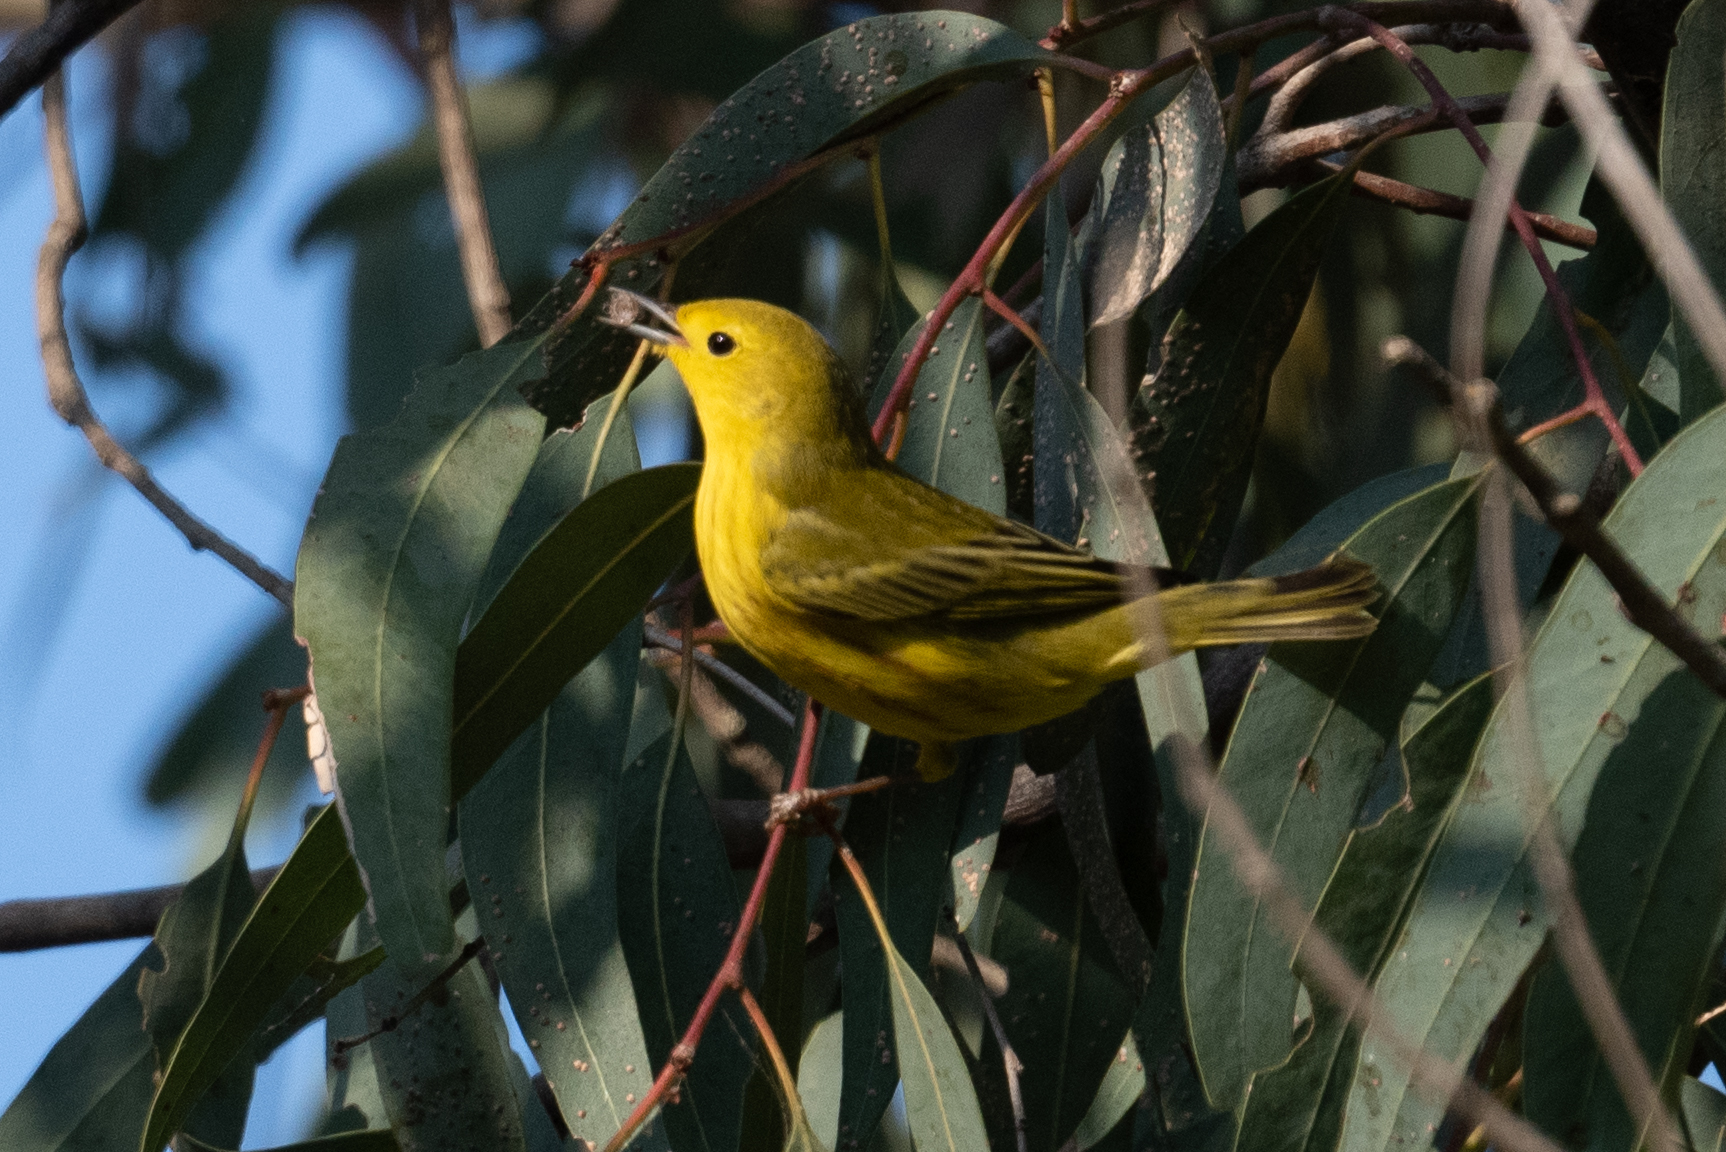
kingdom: Animalia
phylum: Chordata
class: Aves
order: Passeriformes
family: Parulidae
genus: Setophaga
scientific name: Setophaga petechia
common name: Yellow warbler
